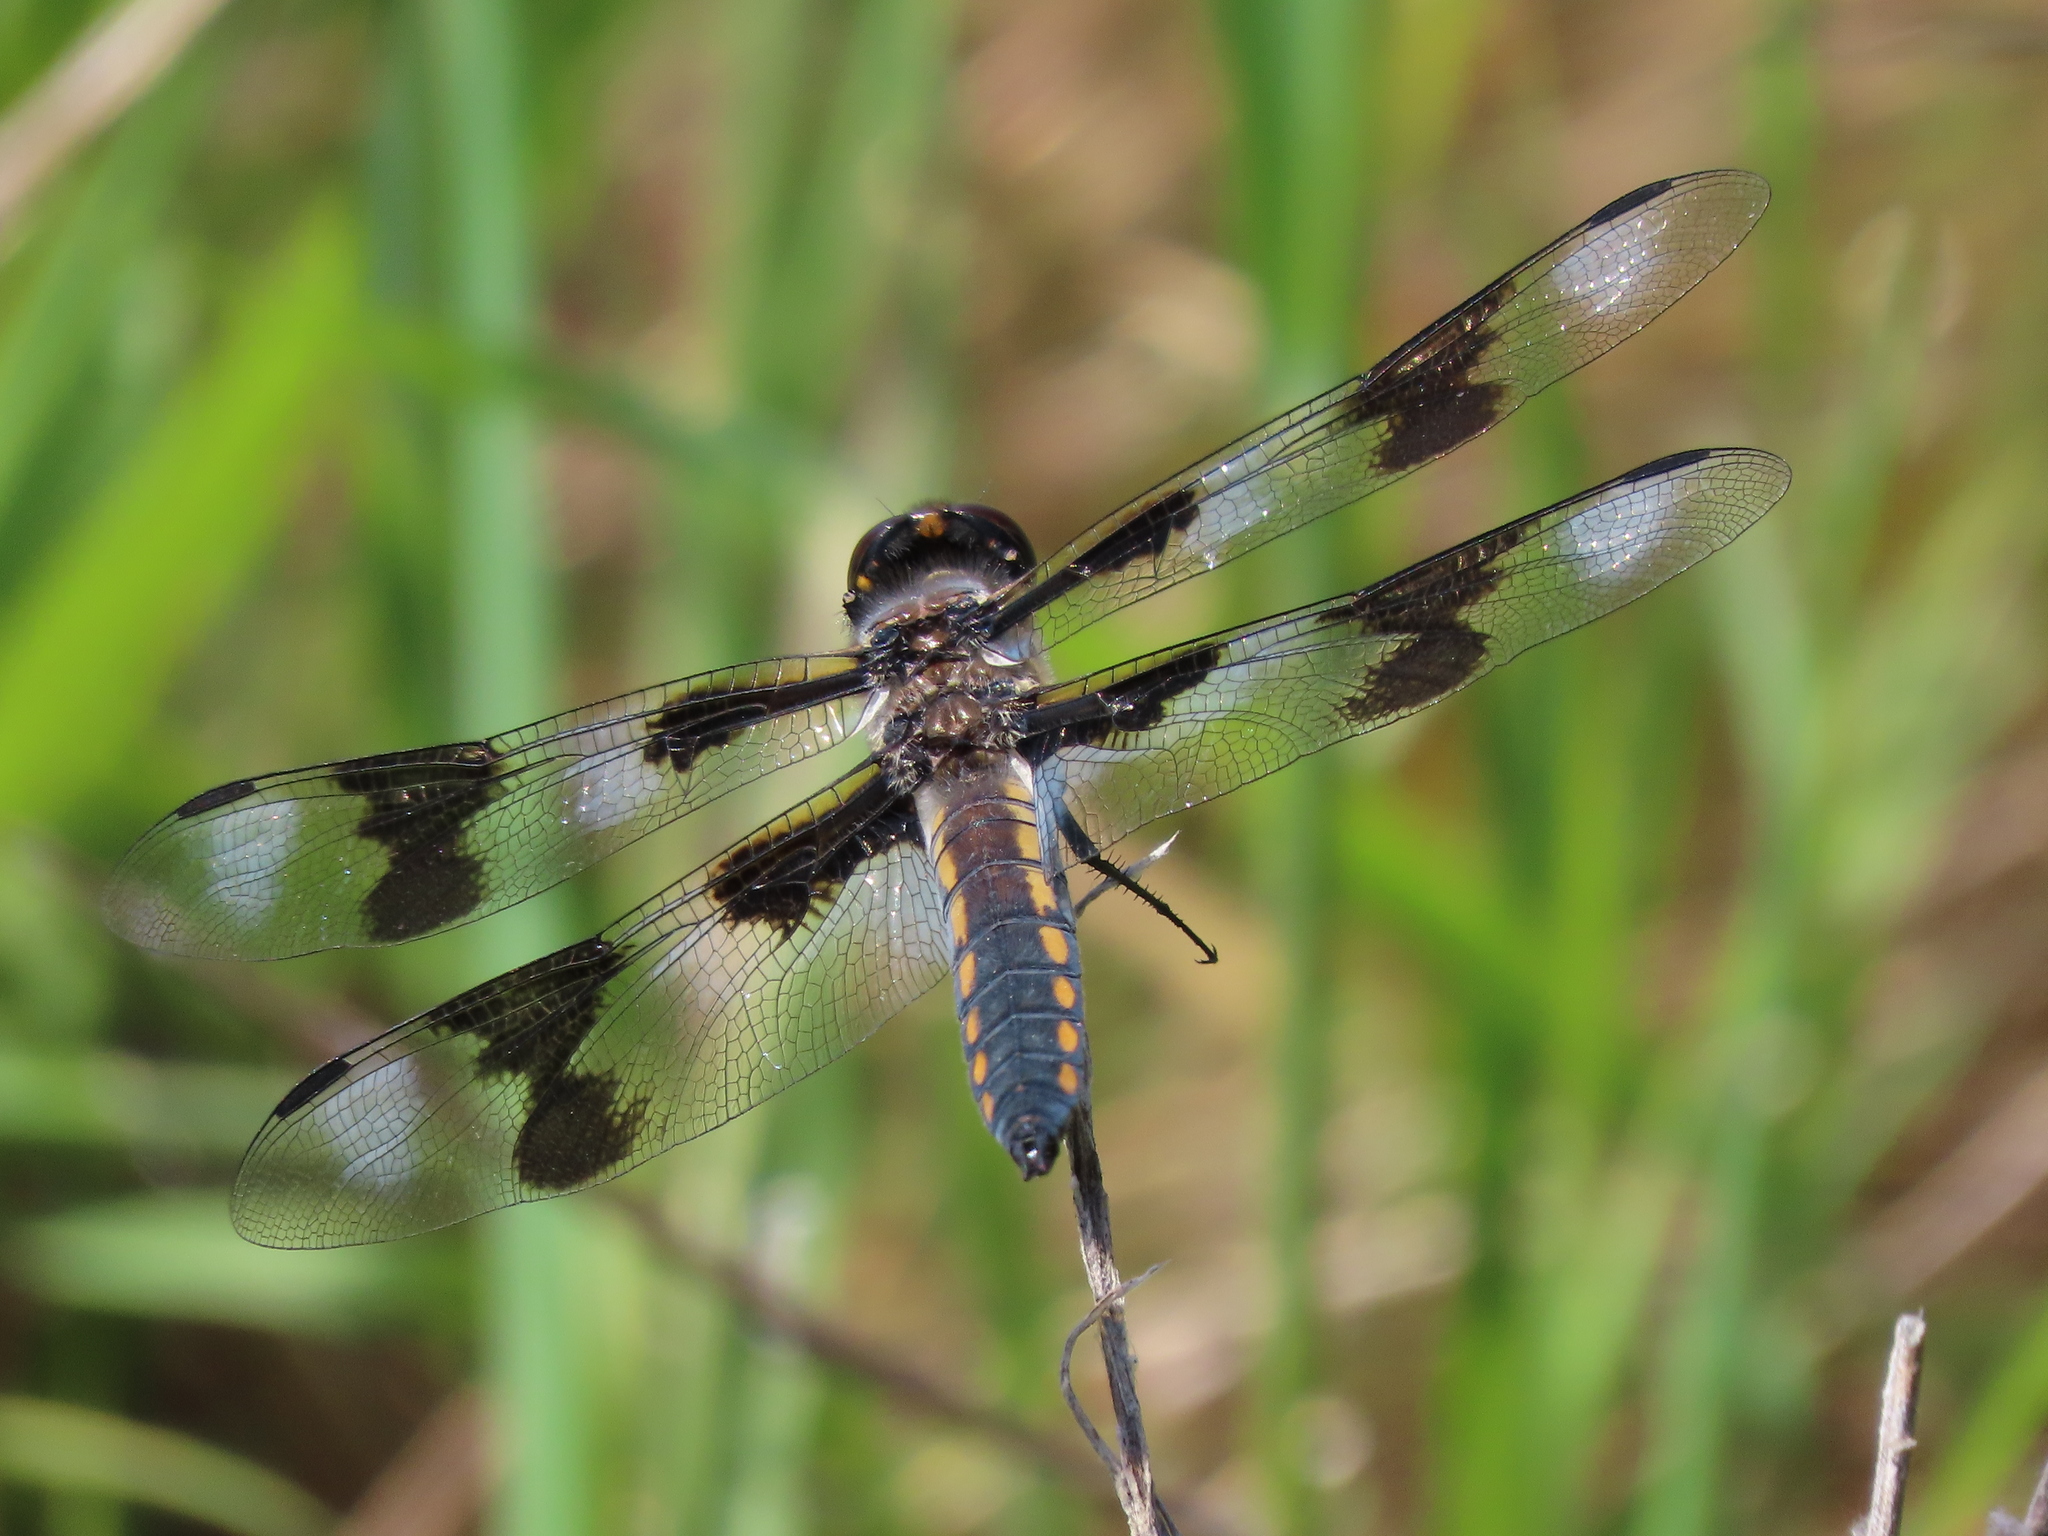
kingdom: Animalia
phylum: Arthropoda
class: Insecta
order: Odonata
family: Libellulidae
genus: Libellula
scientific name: Libellula forensis
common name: Eight-spotted skimmer
